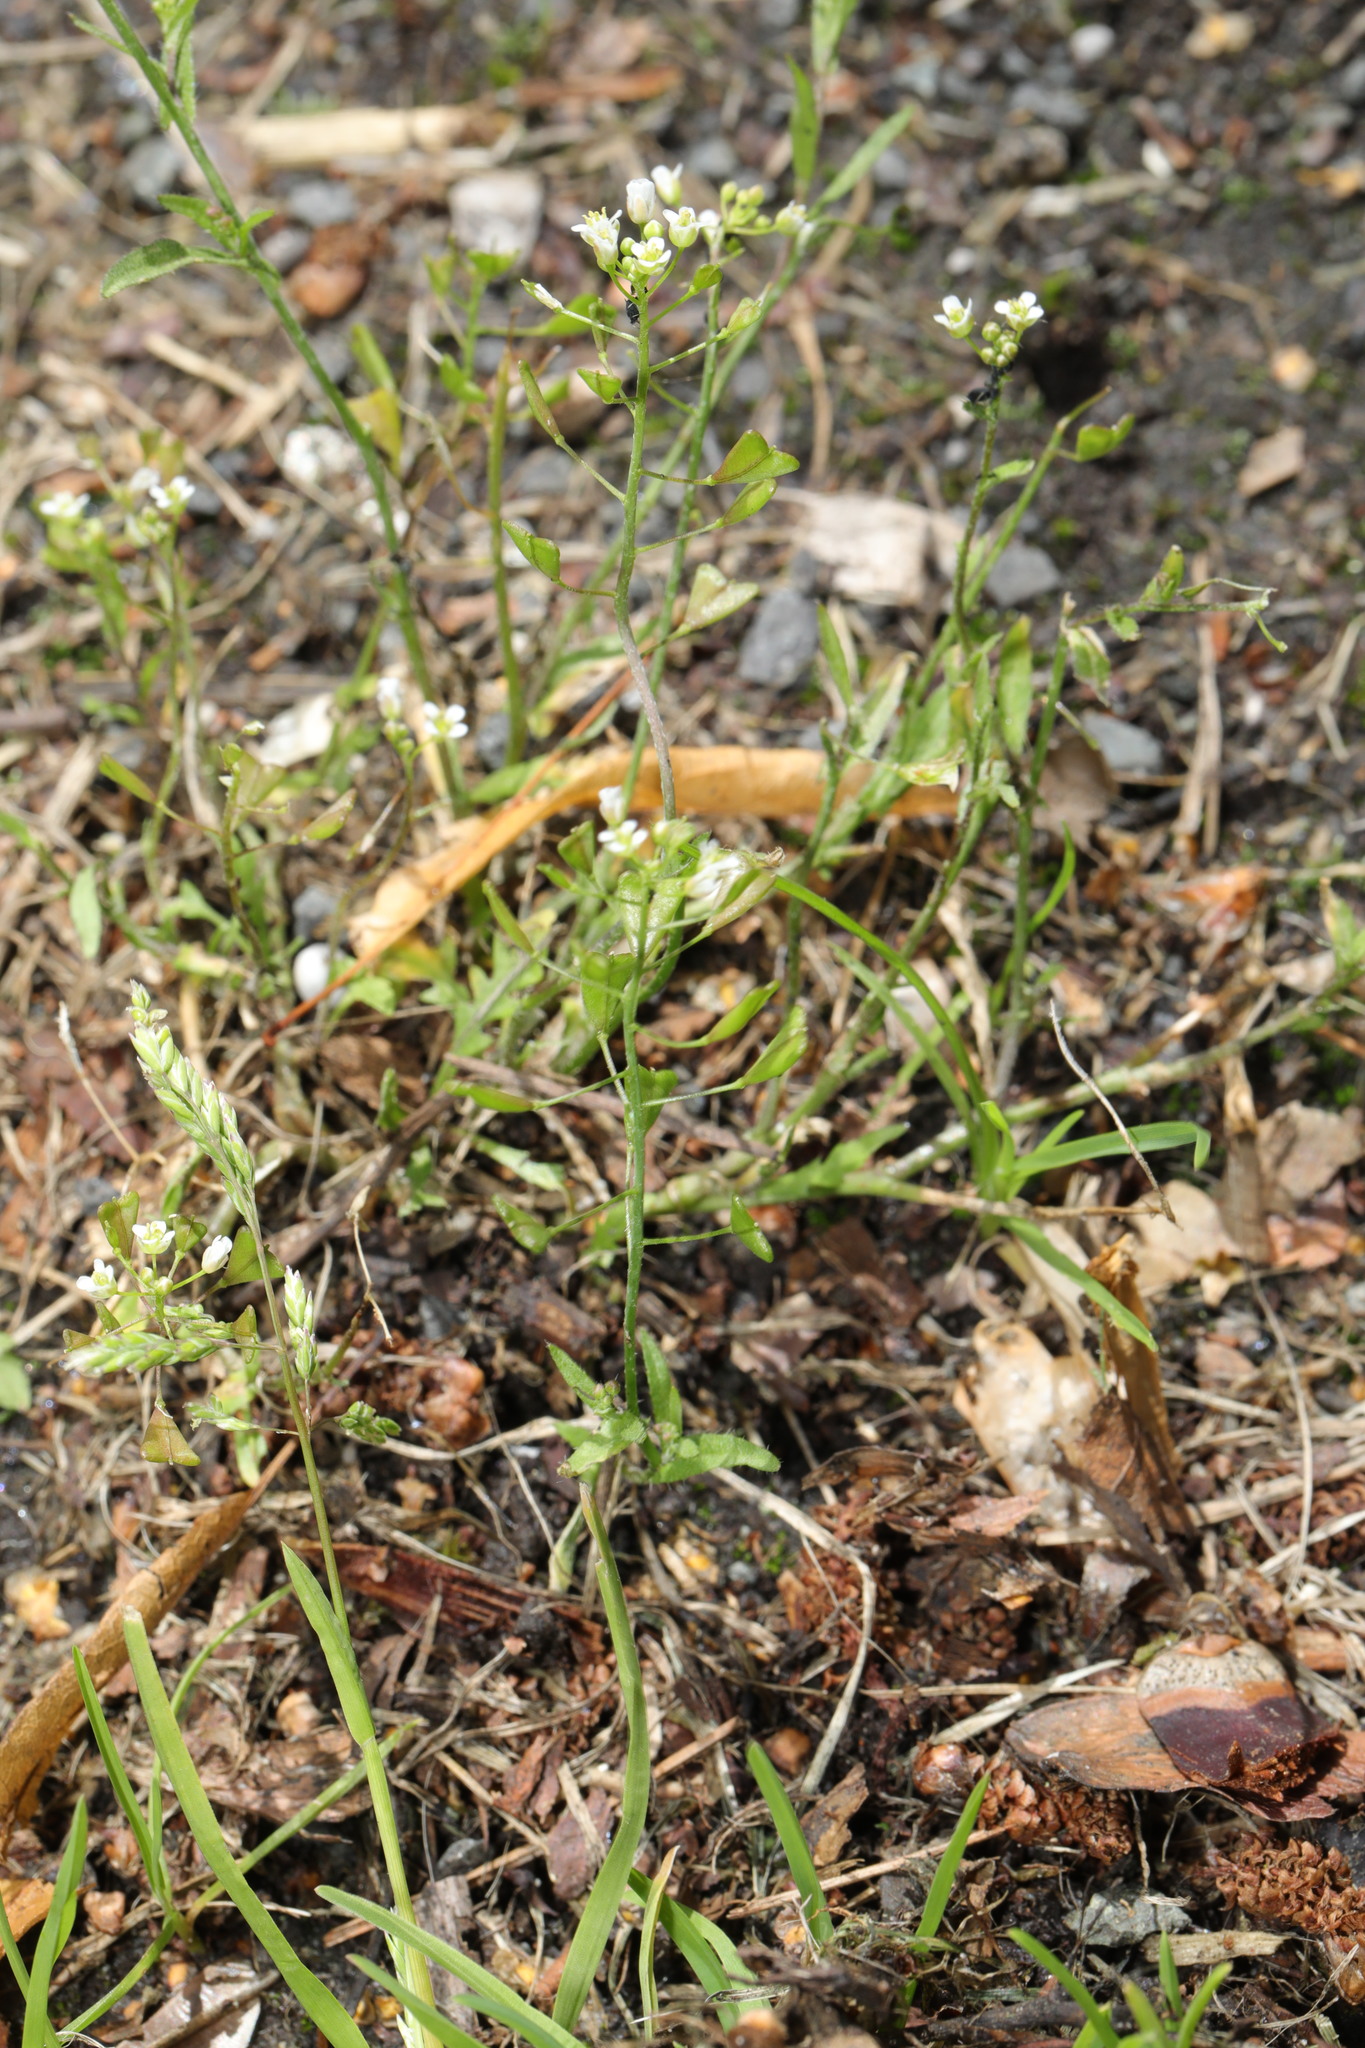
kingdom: Plantae
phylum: Tracheophyta
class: Magnoliopsida
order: Brassicales
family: Brassicaceae
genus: Capsella
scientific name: Capsella bursa-pastoris
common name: Shepherd's purse
